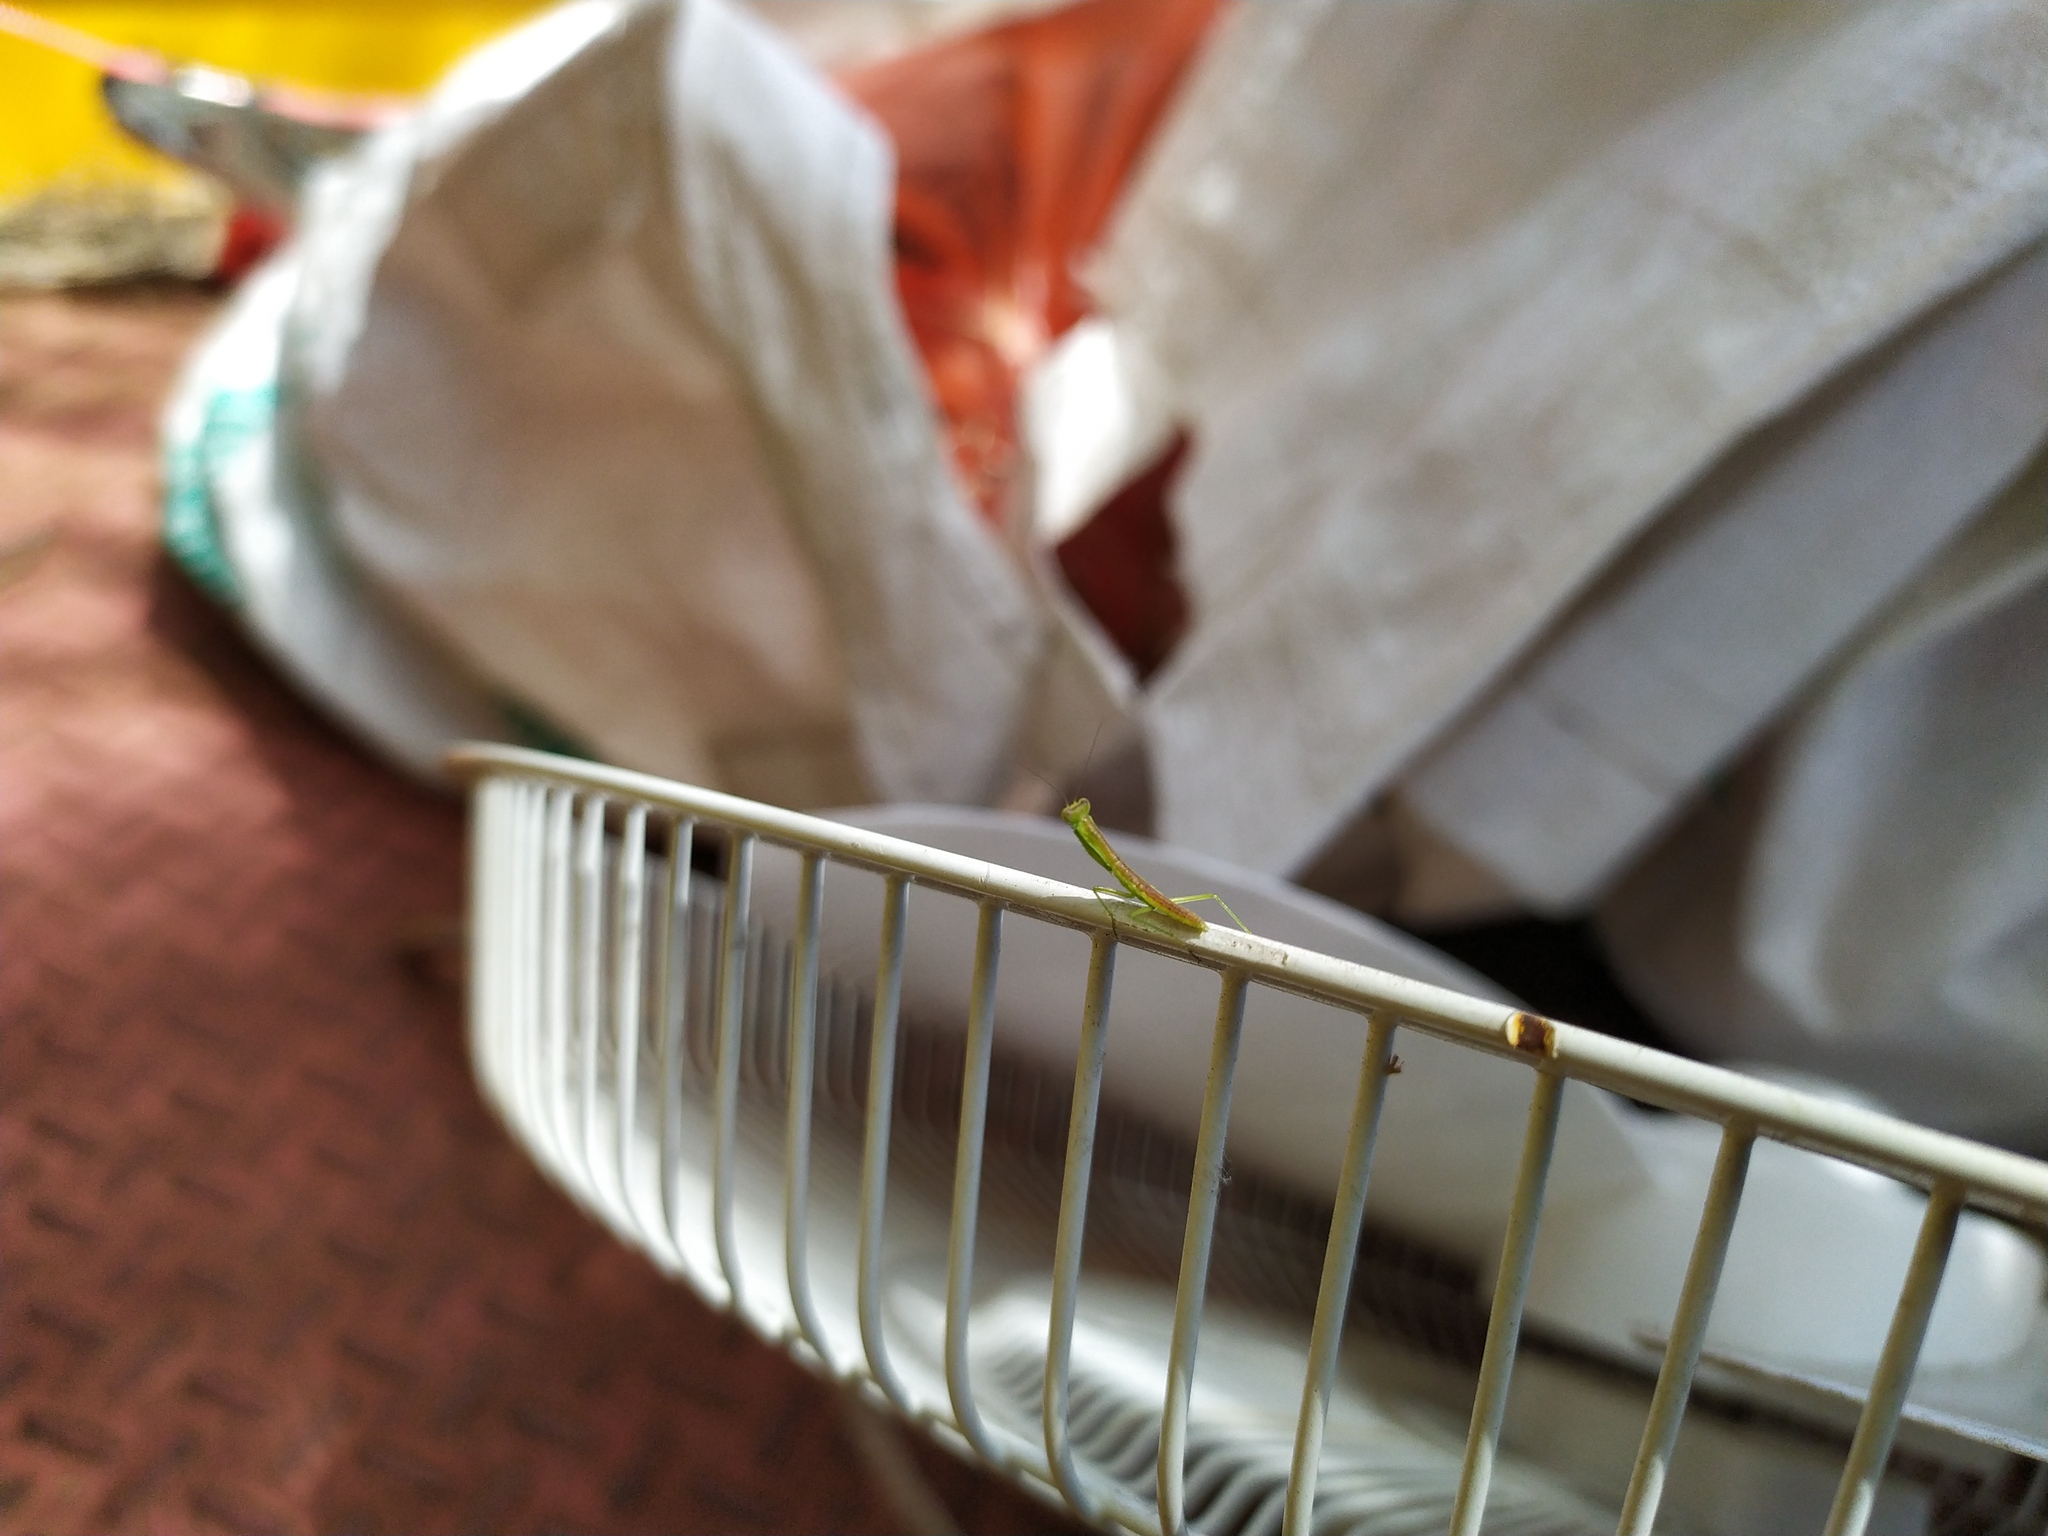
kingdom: Animalia
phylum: Arthropoda
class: Insecta
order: Mantodea
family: Mantidae
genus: Orthodera
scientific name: Orthodera ministralis
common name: Mantis
